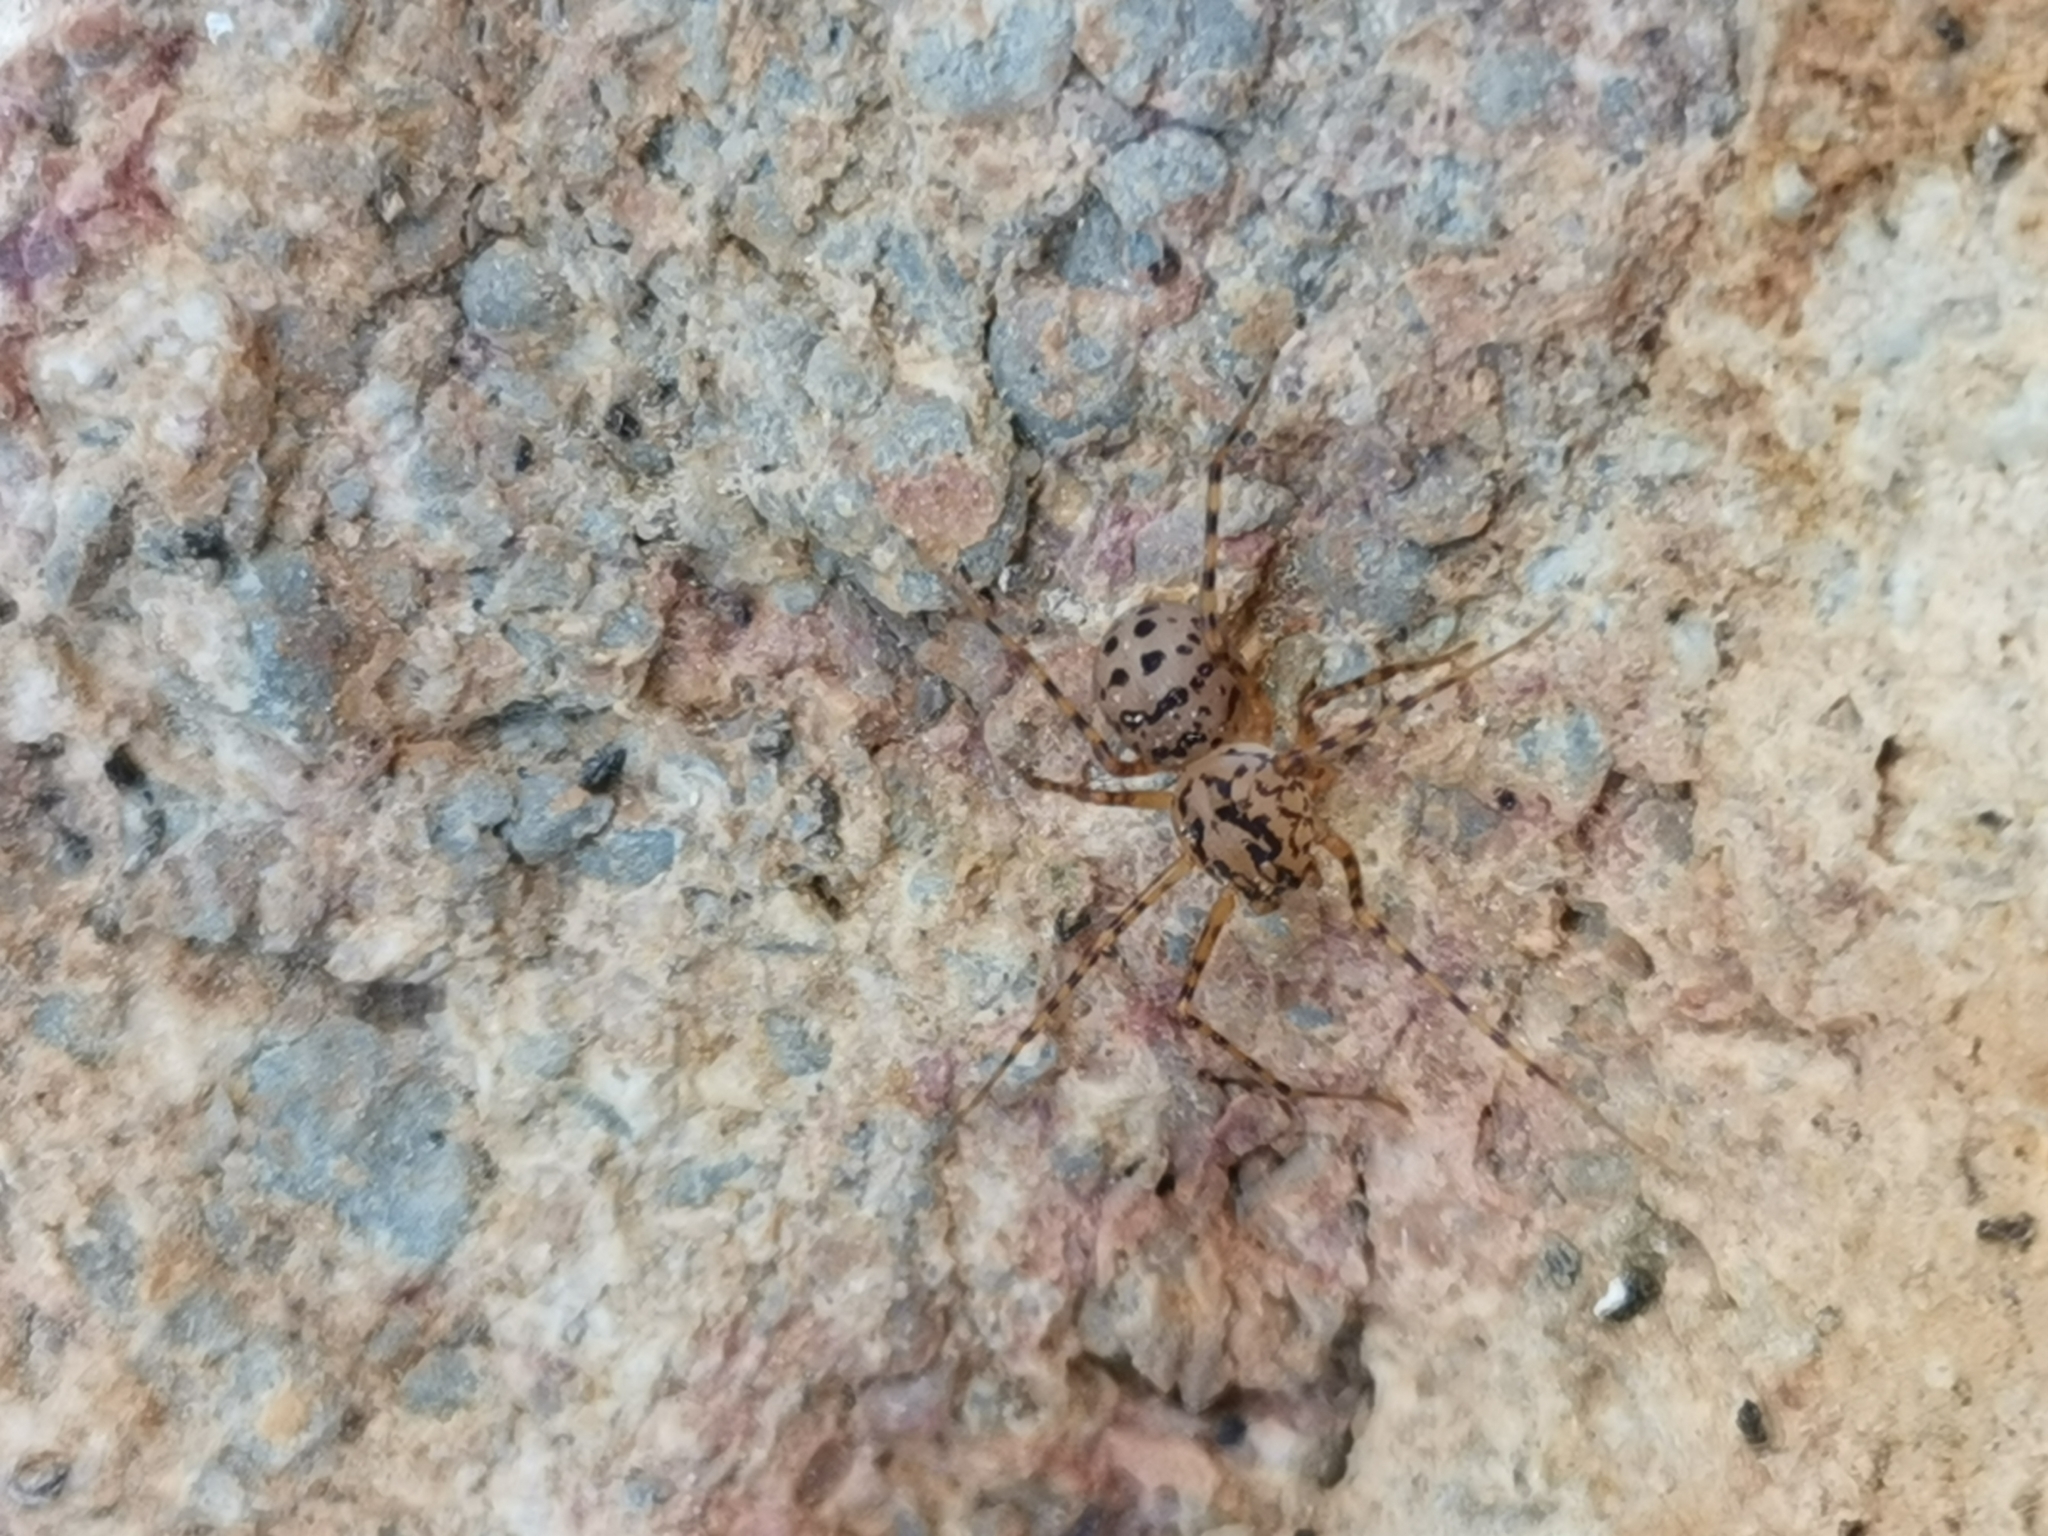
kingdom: Animalia
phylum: Arthropoda
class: Arachnida
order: Araneae
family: Scytodidae
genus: Scytodes
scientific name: Scytodes thoracica
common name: Spitting spider
